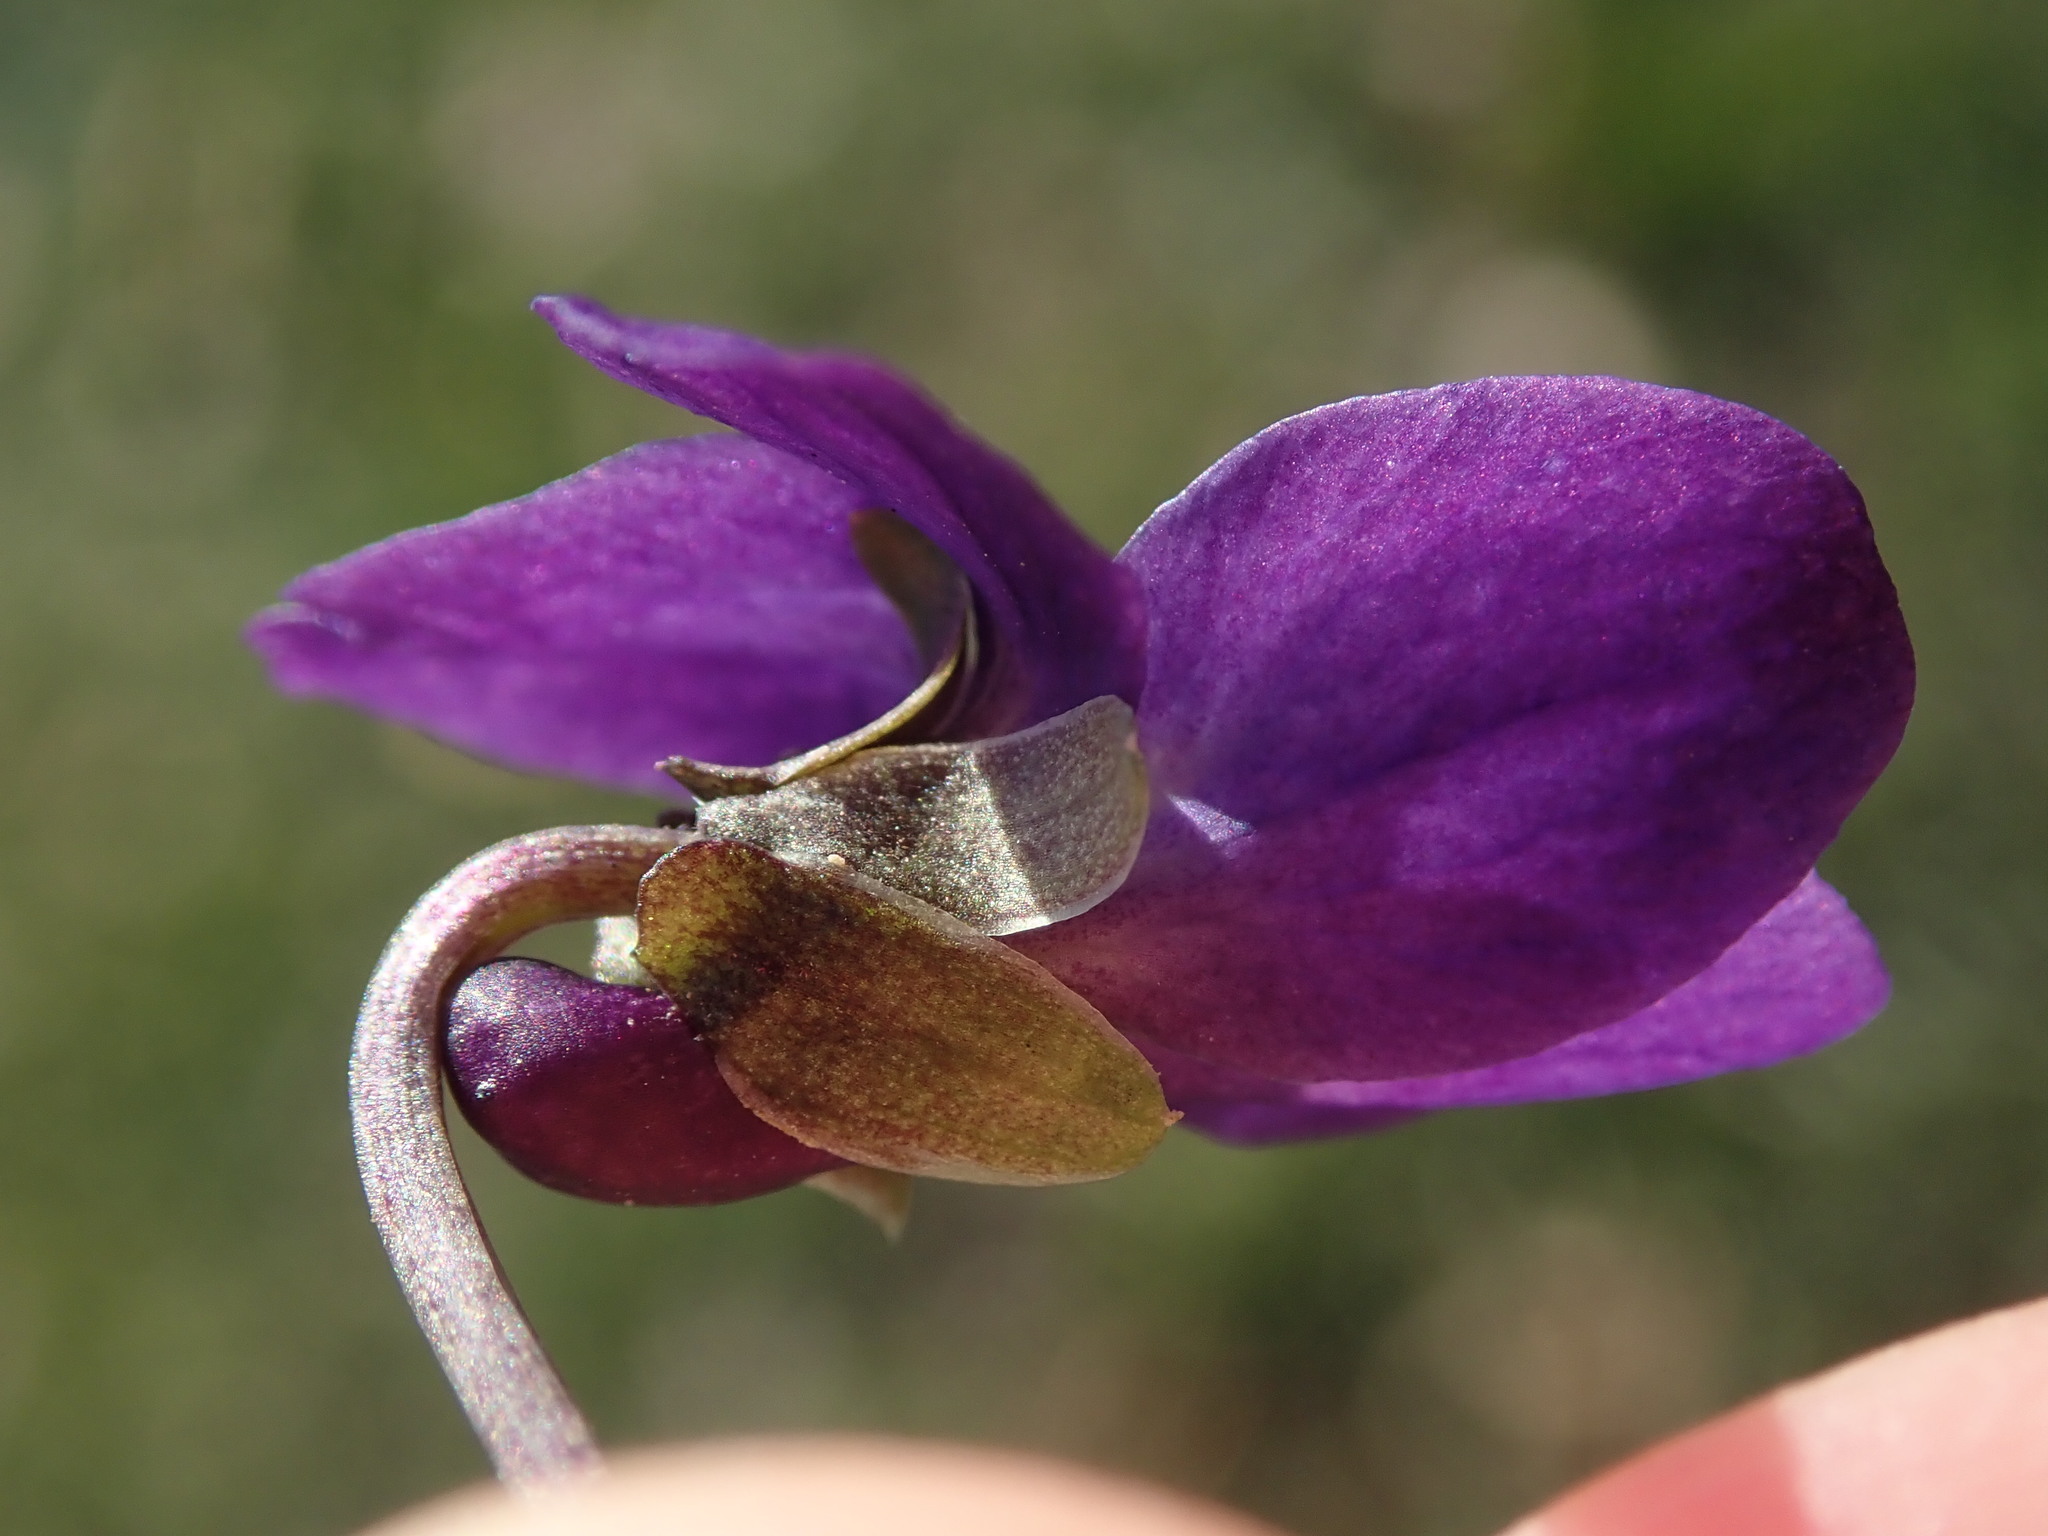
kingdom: Plantae
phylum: Tracheophyta
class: Magnoliopsida
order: Malpighiales
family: Violaceae
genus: Viola
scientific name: Viola odorata
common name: Sweet violet
